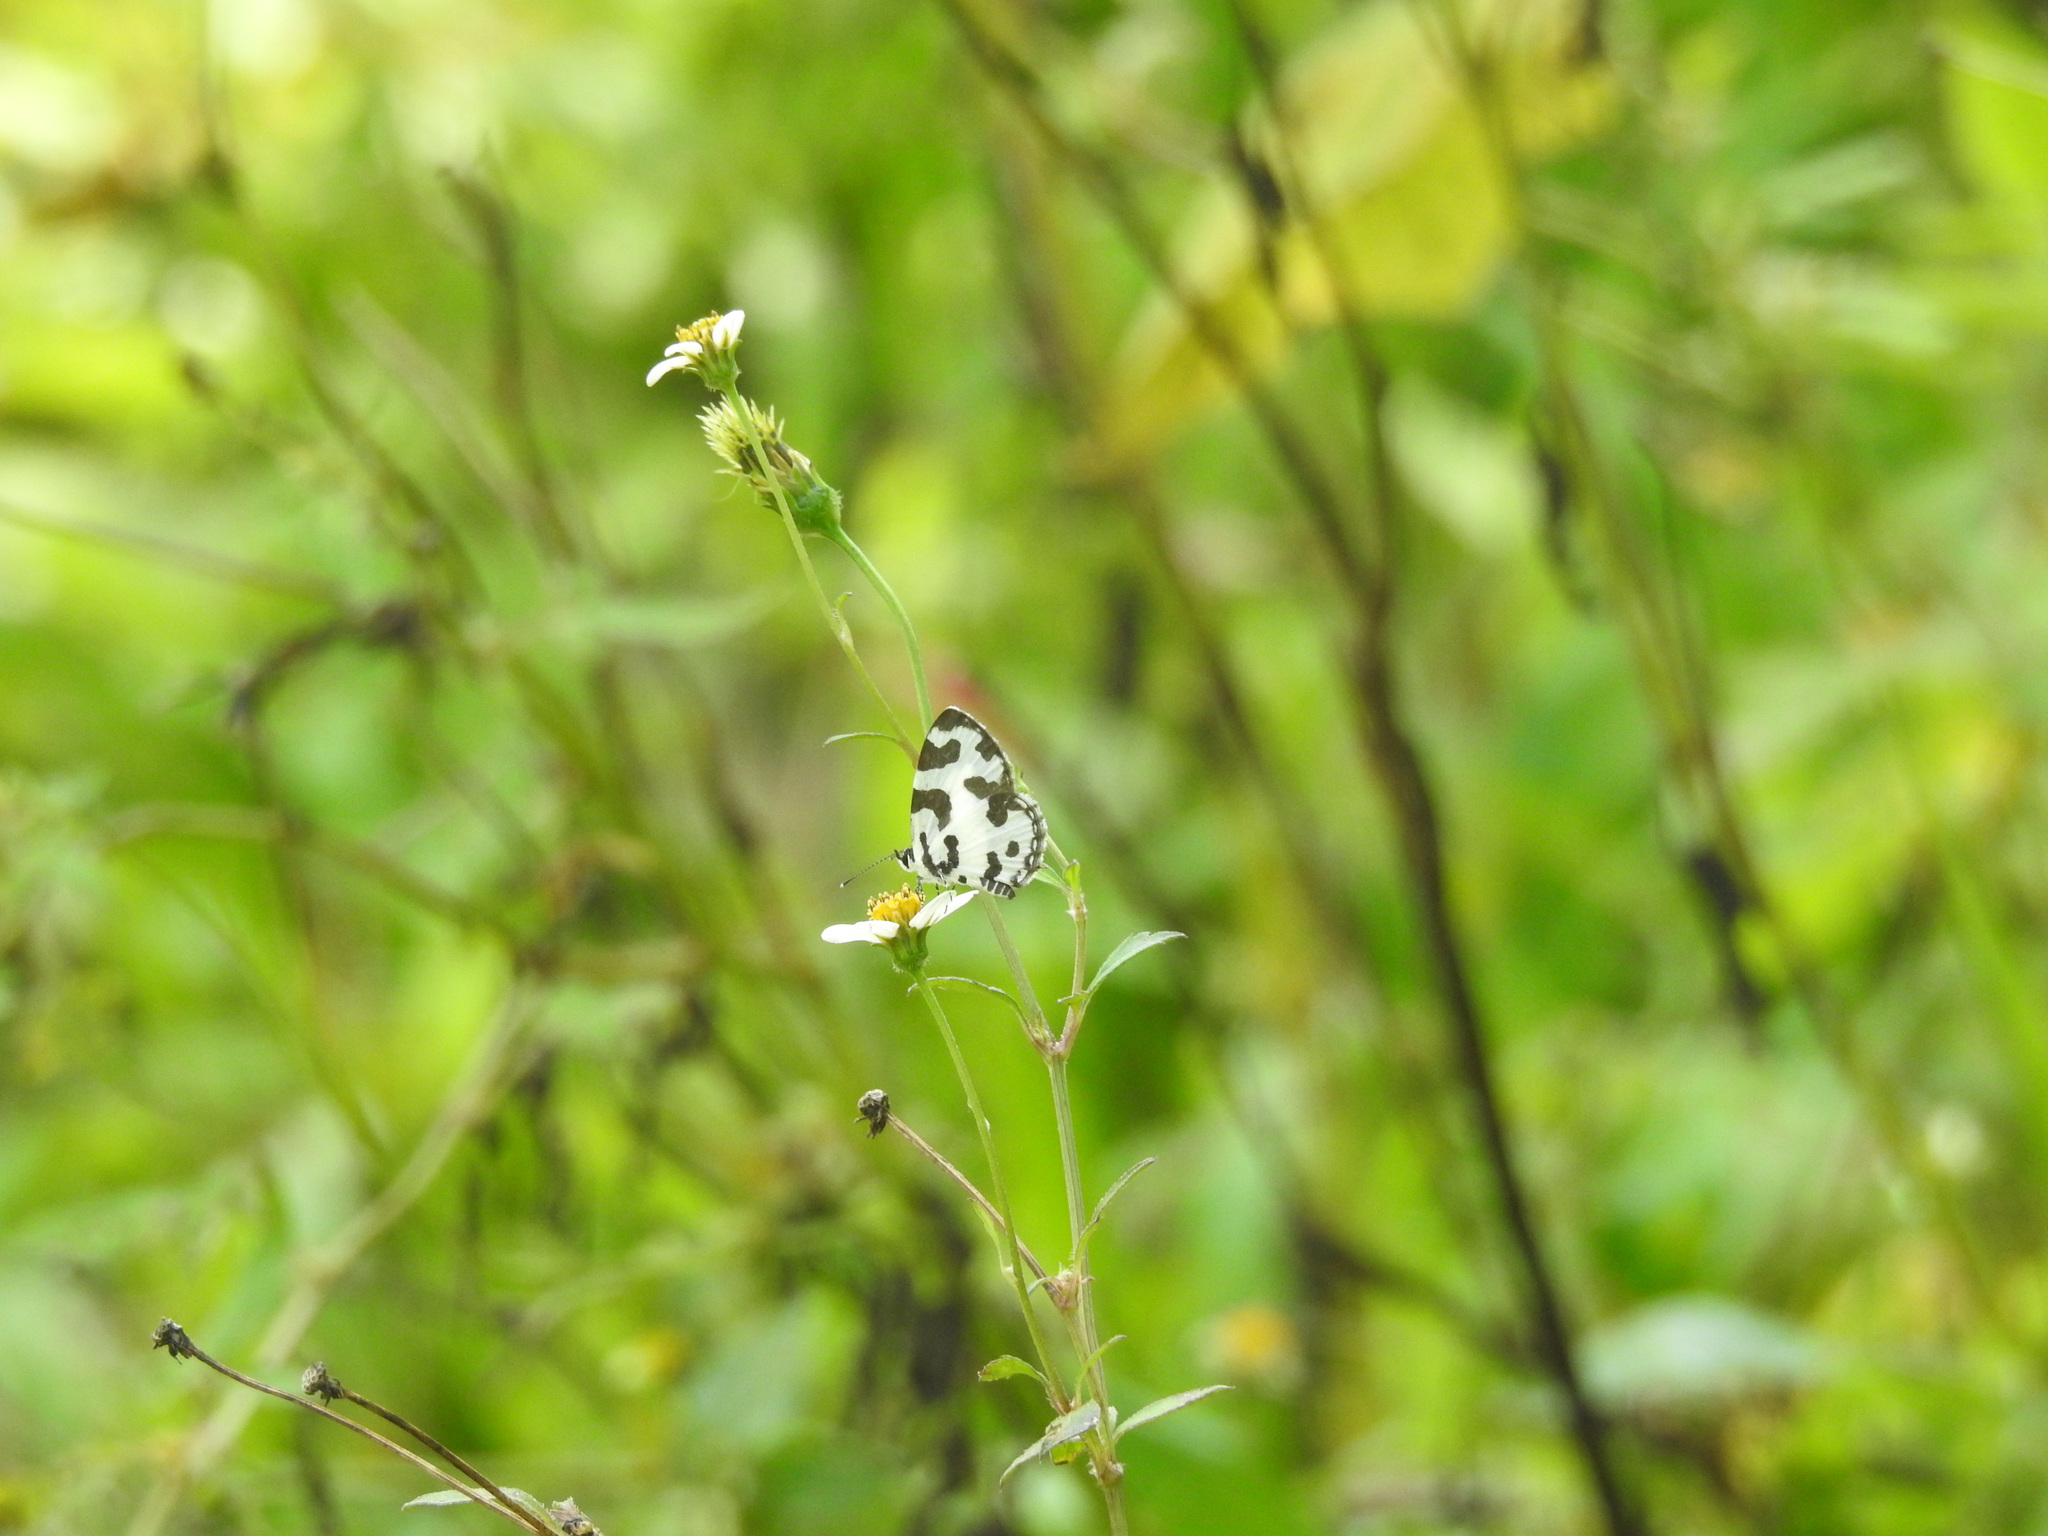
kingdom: Animalia
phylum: Arthropoda
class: Insecta
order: Lepidoptera
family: Lycaenidae
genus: Caleta
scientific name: Caleta decidia
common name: Angled pierrot
